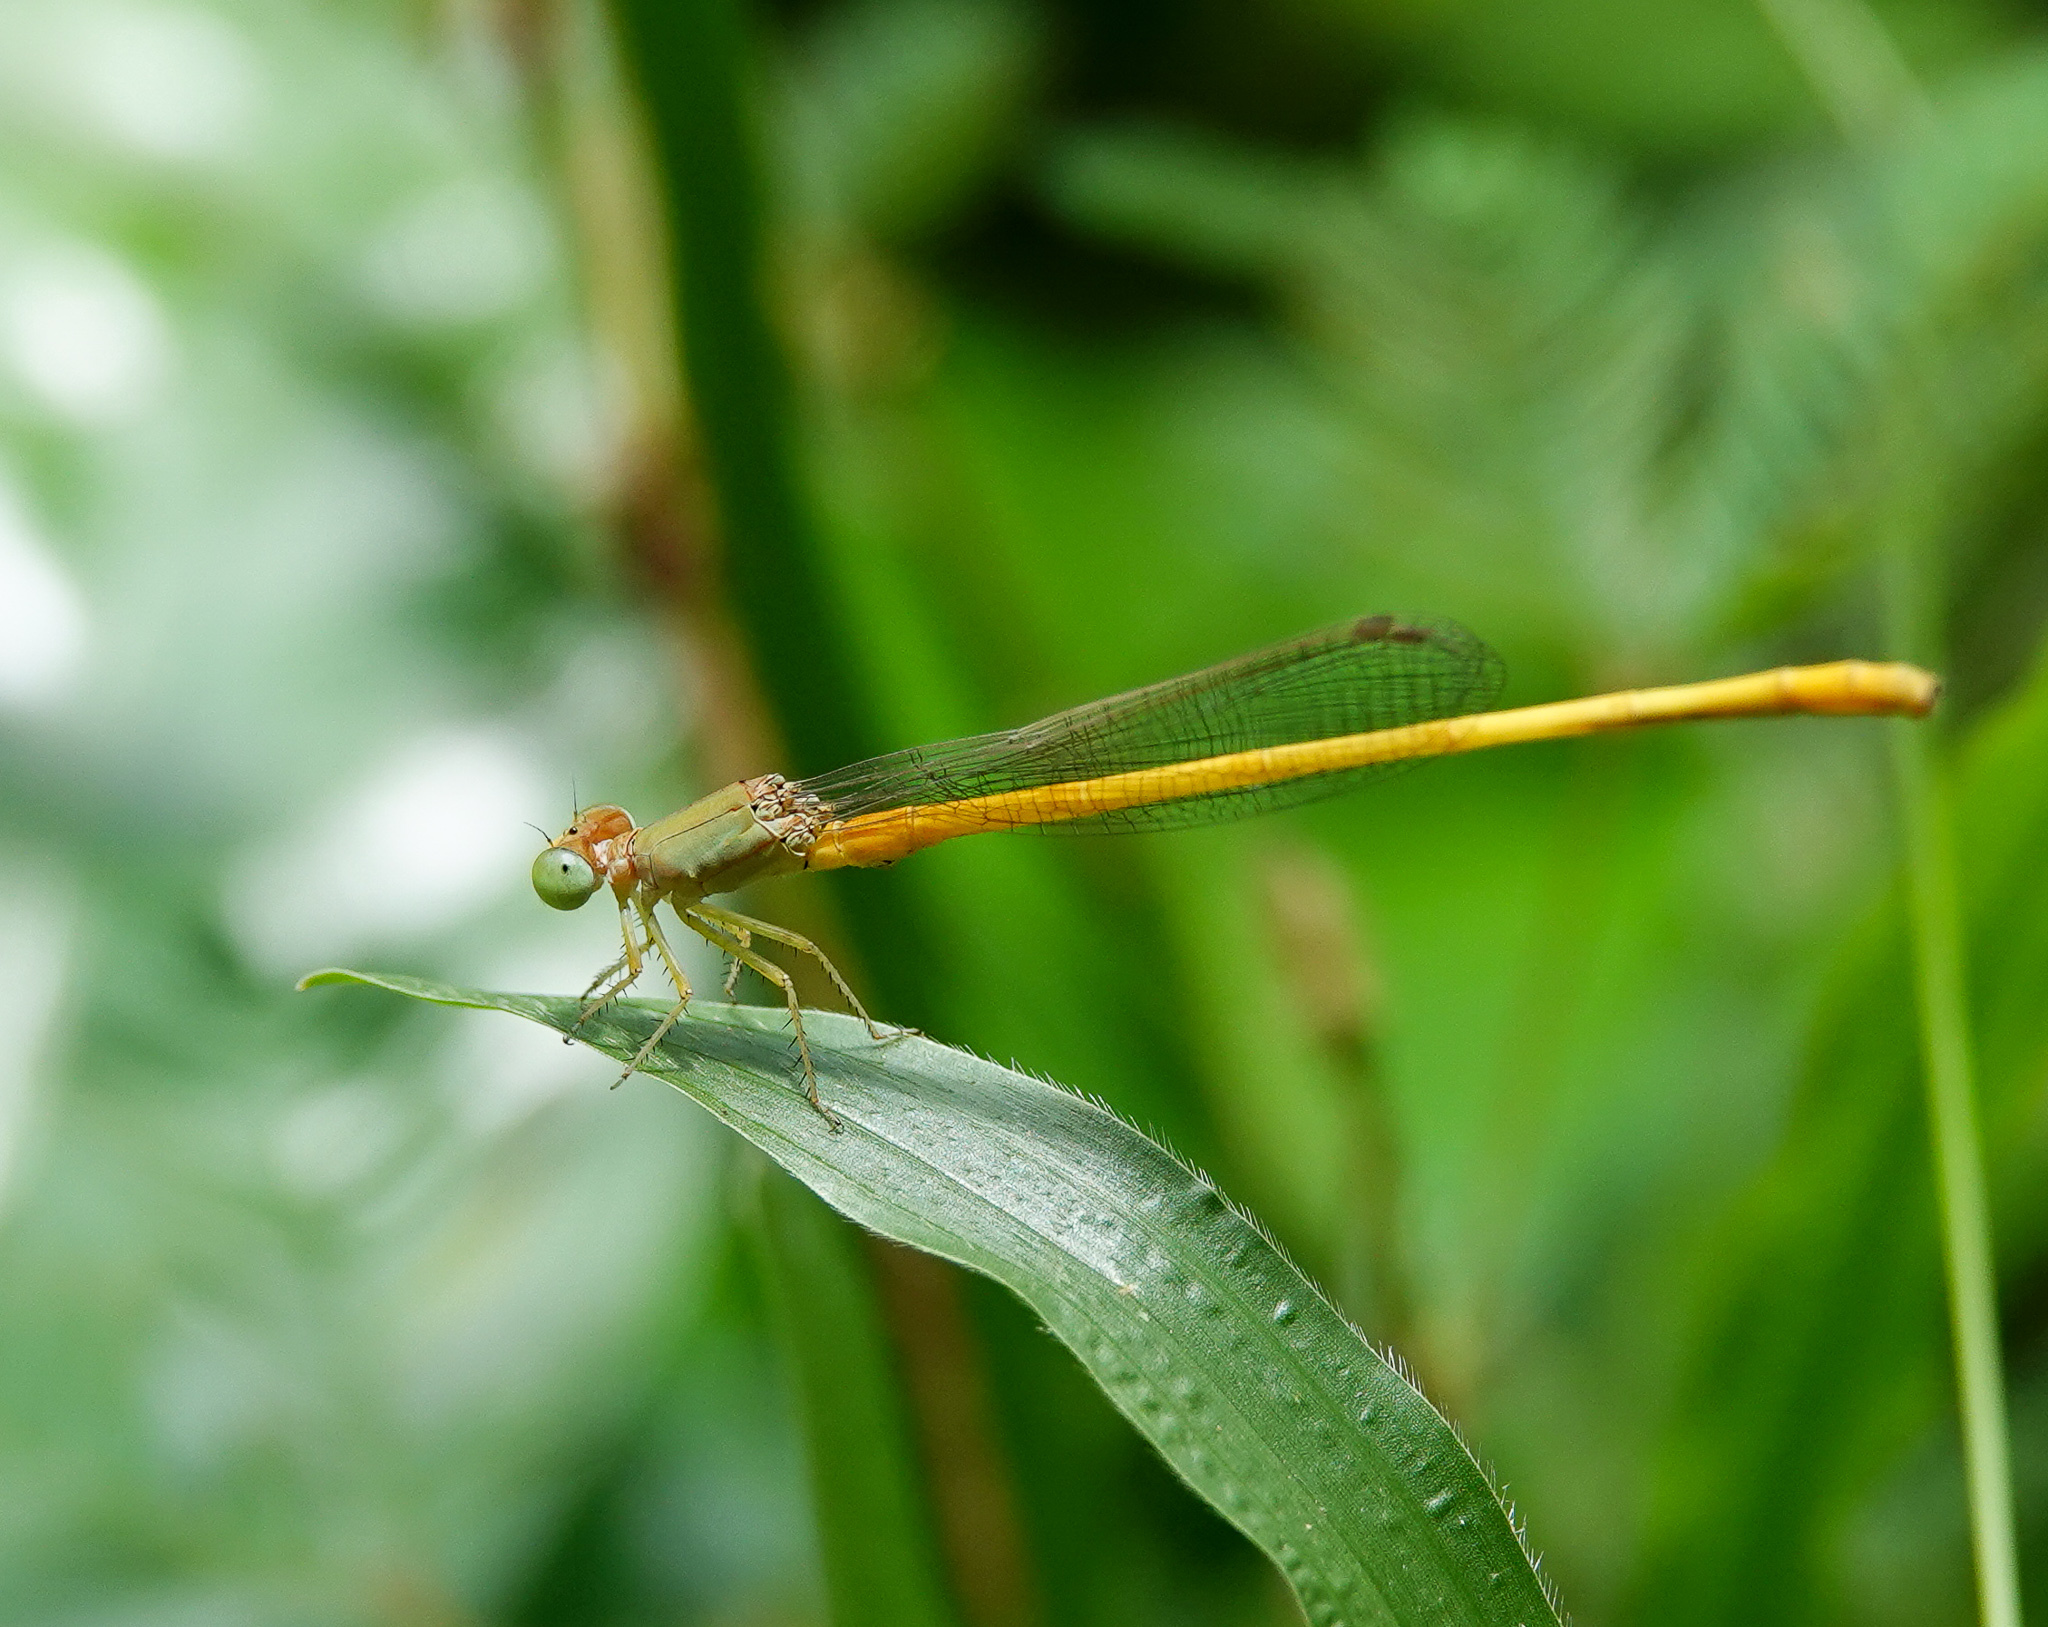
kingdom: Animalia
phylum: Arthropoda
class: Insecta
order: Odonata
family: Coenagrionidae
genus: Ceriagrion
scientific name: Ceriagrion coromandelianum
